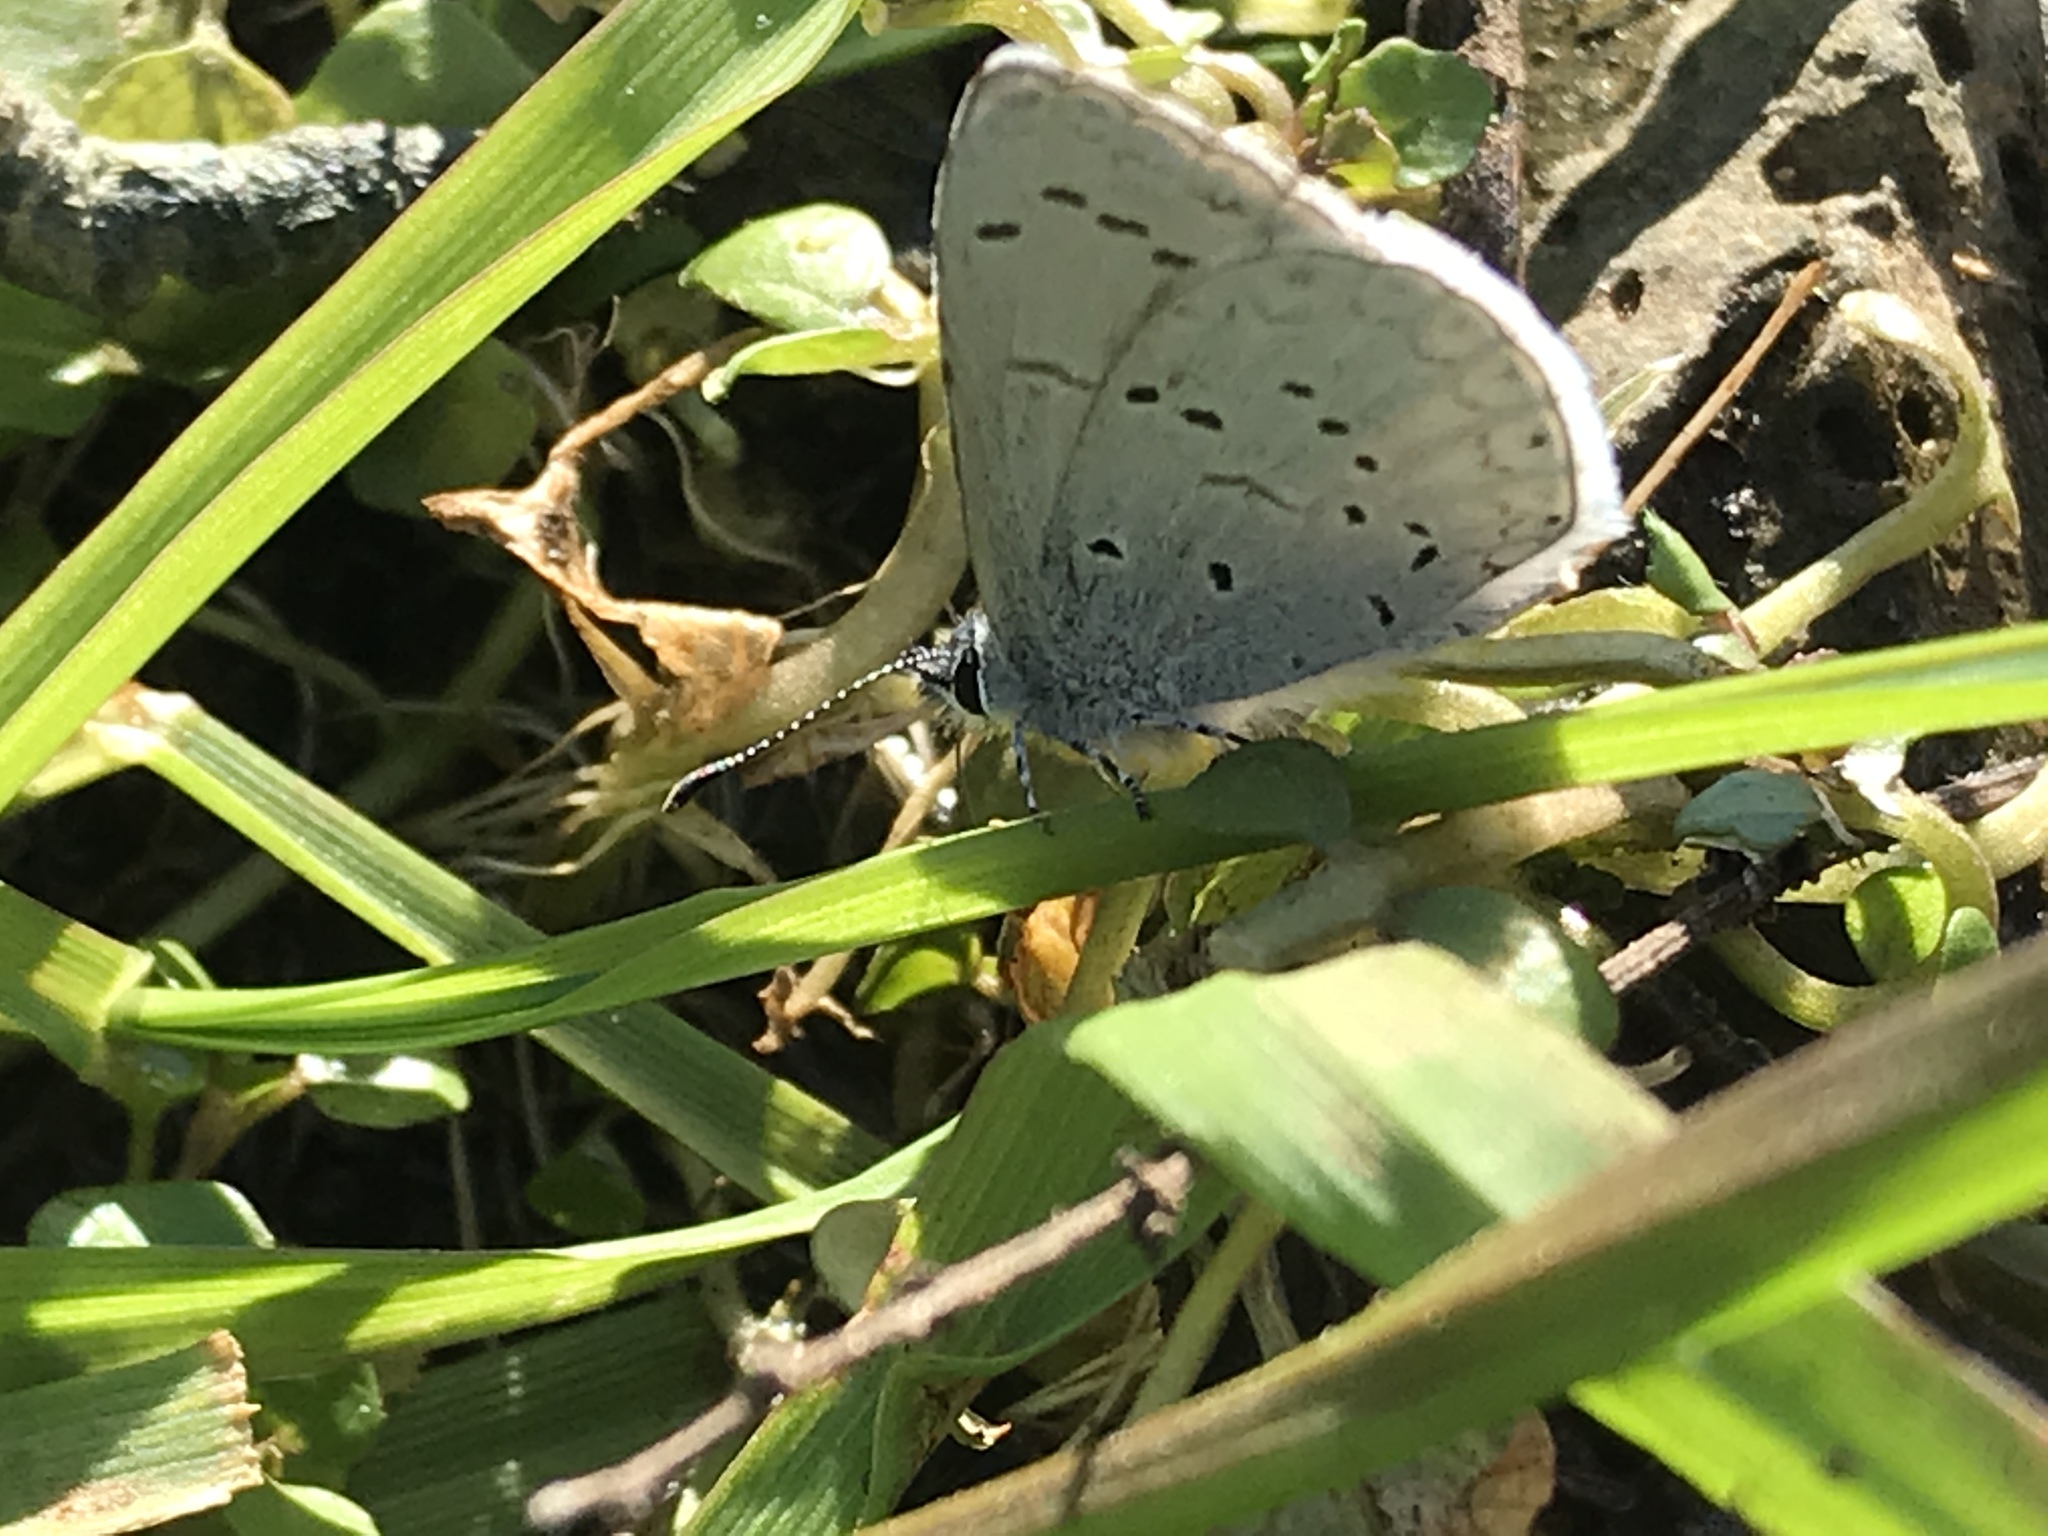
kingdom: Animalia
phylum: Arthropoda
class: Insecta
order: Lepidoptera
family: Lycaenidae
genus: Celastrina
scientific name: Celastrina ladon
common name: Spring azure
